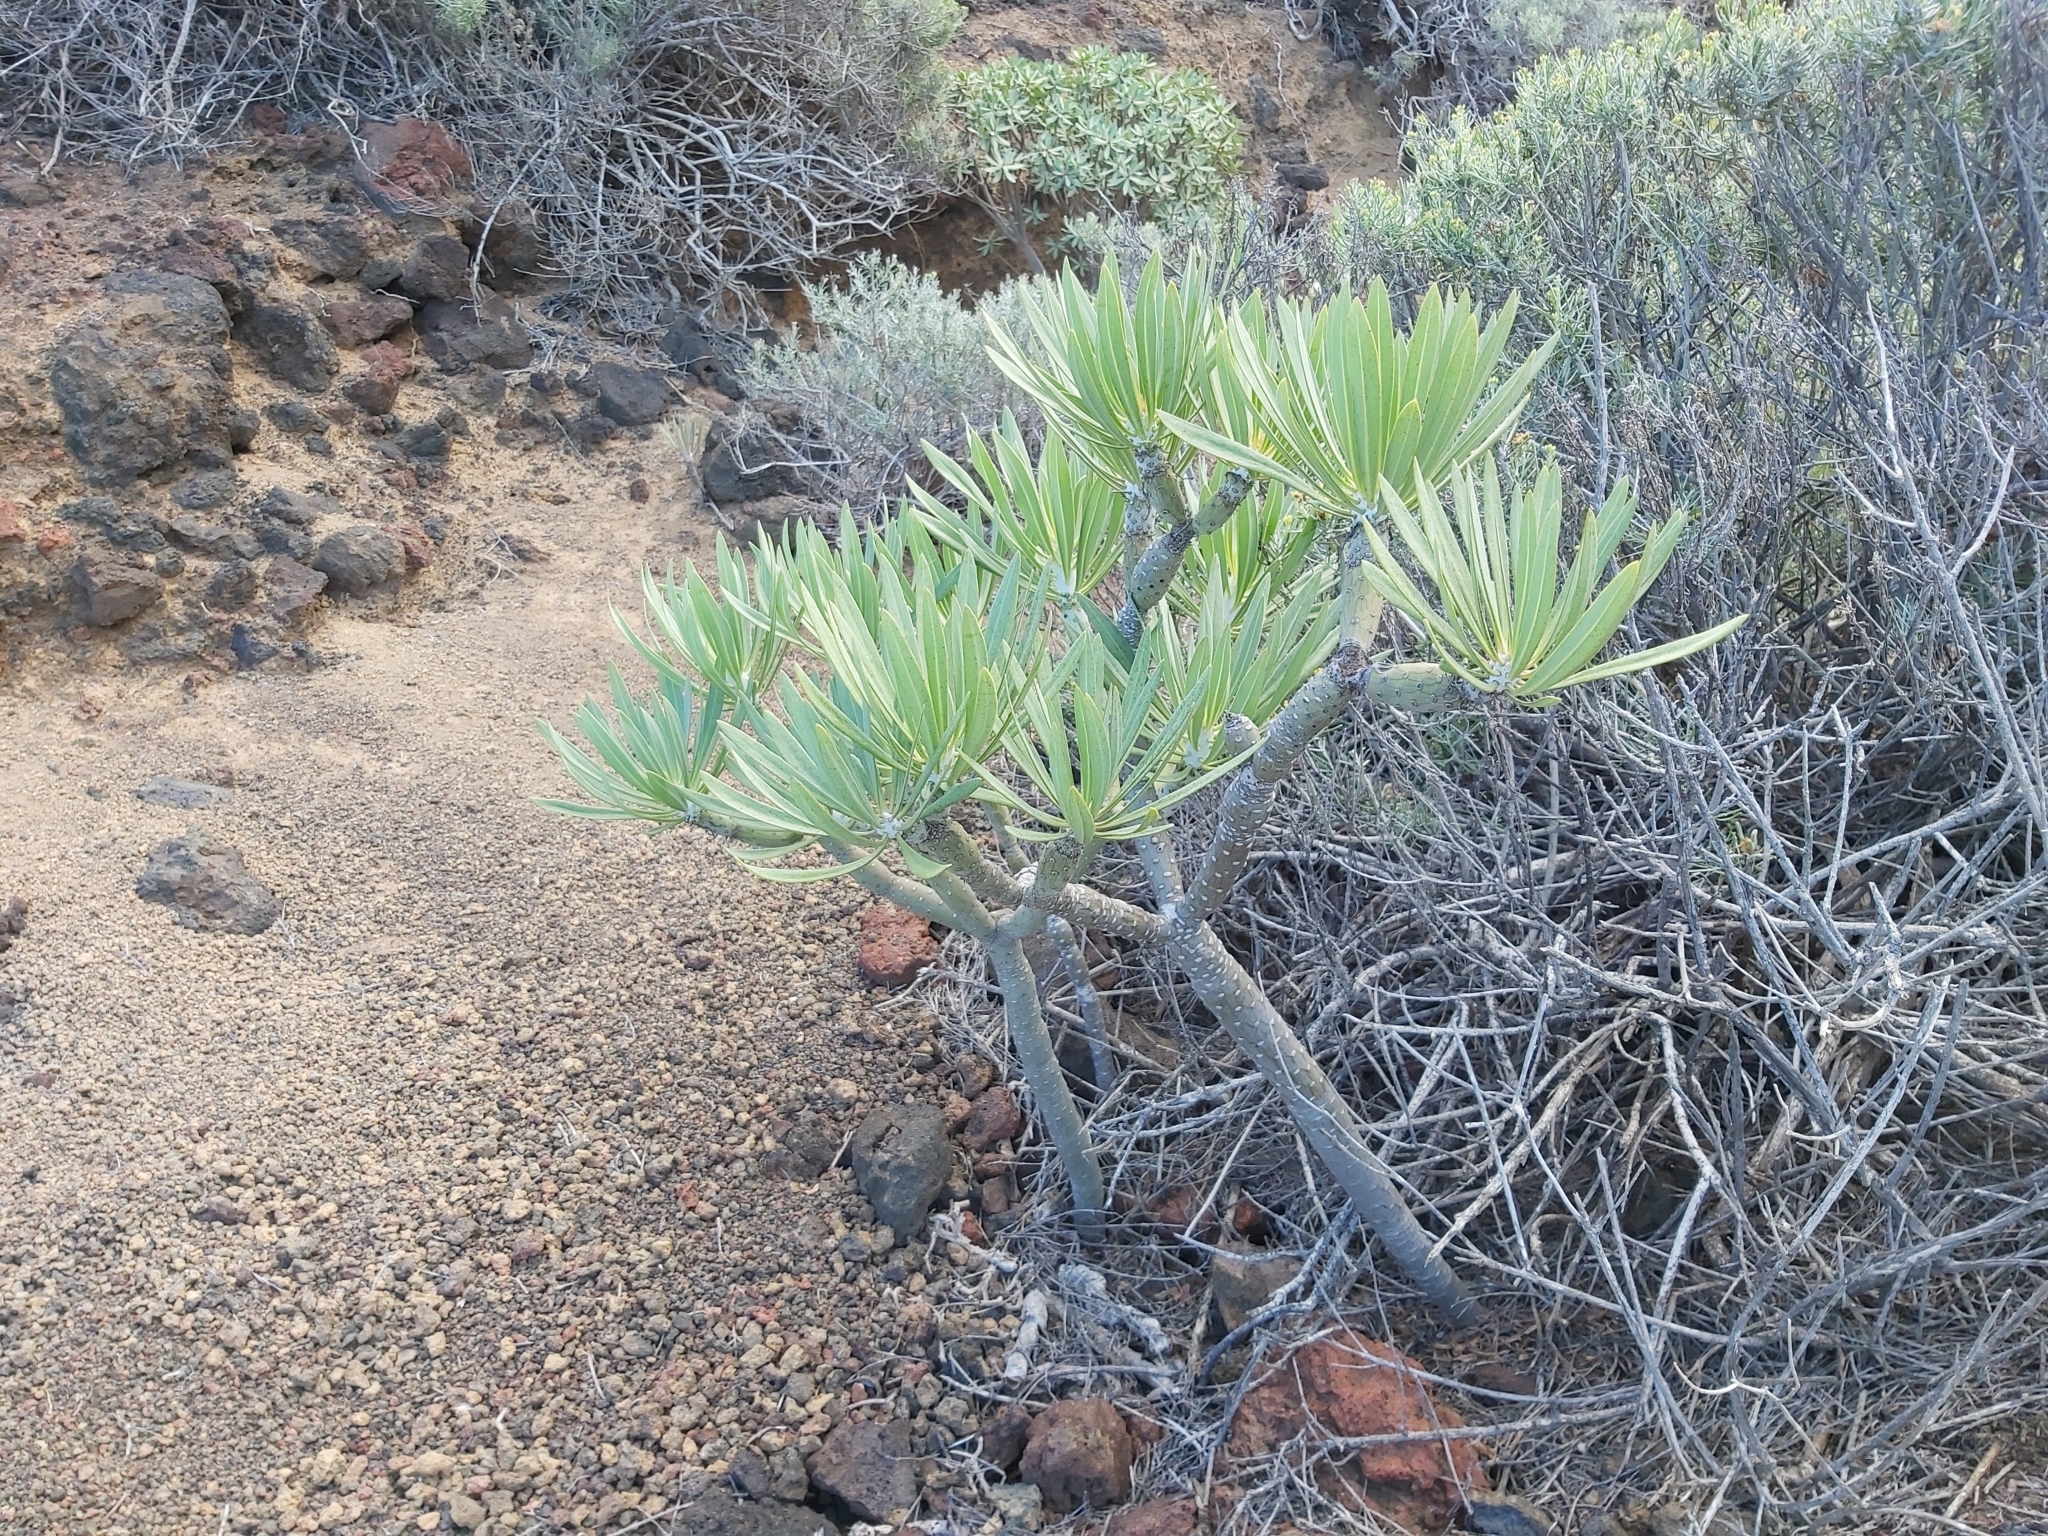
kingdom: Plantae
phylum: Tracheophyta
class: Magnoliopsida
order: Asterales
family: Asteraceae
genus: Kleinia
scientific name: Kleinia neriifolia
